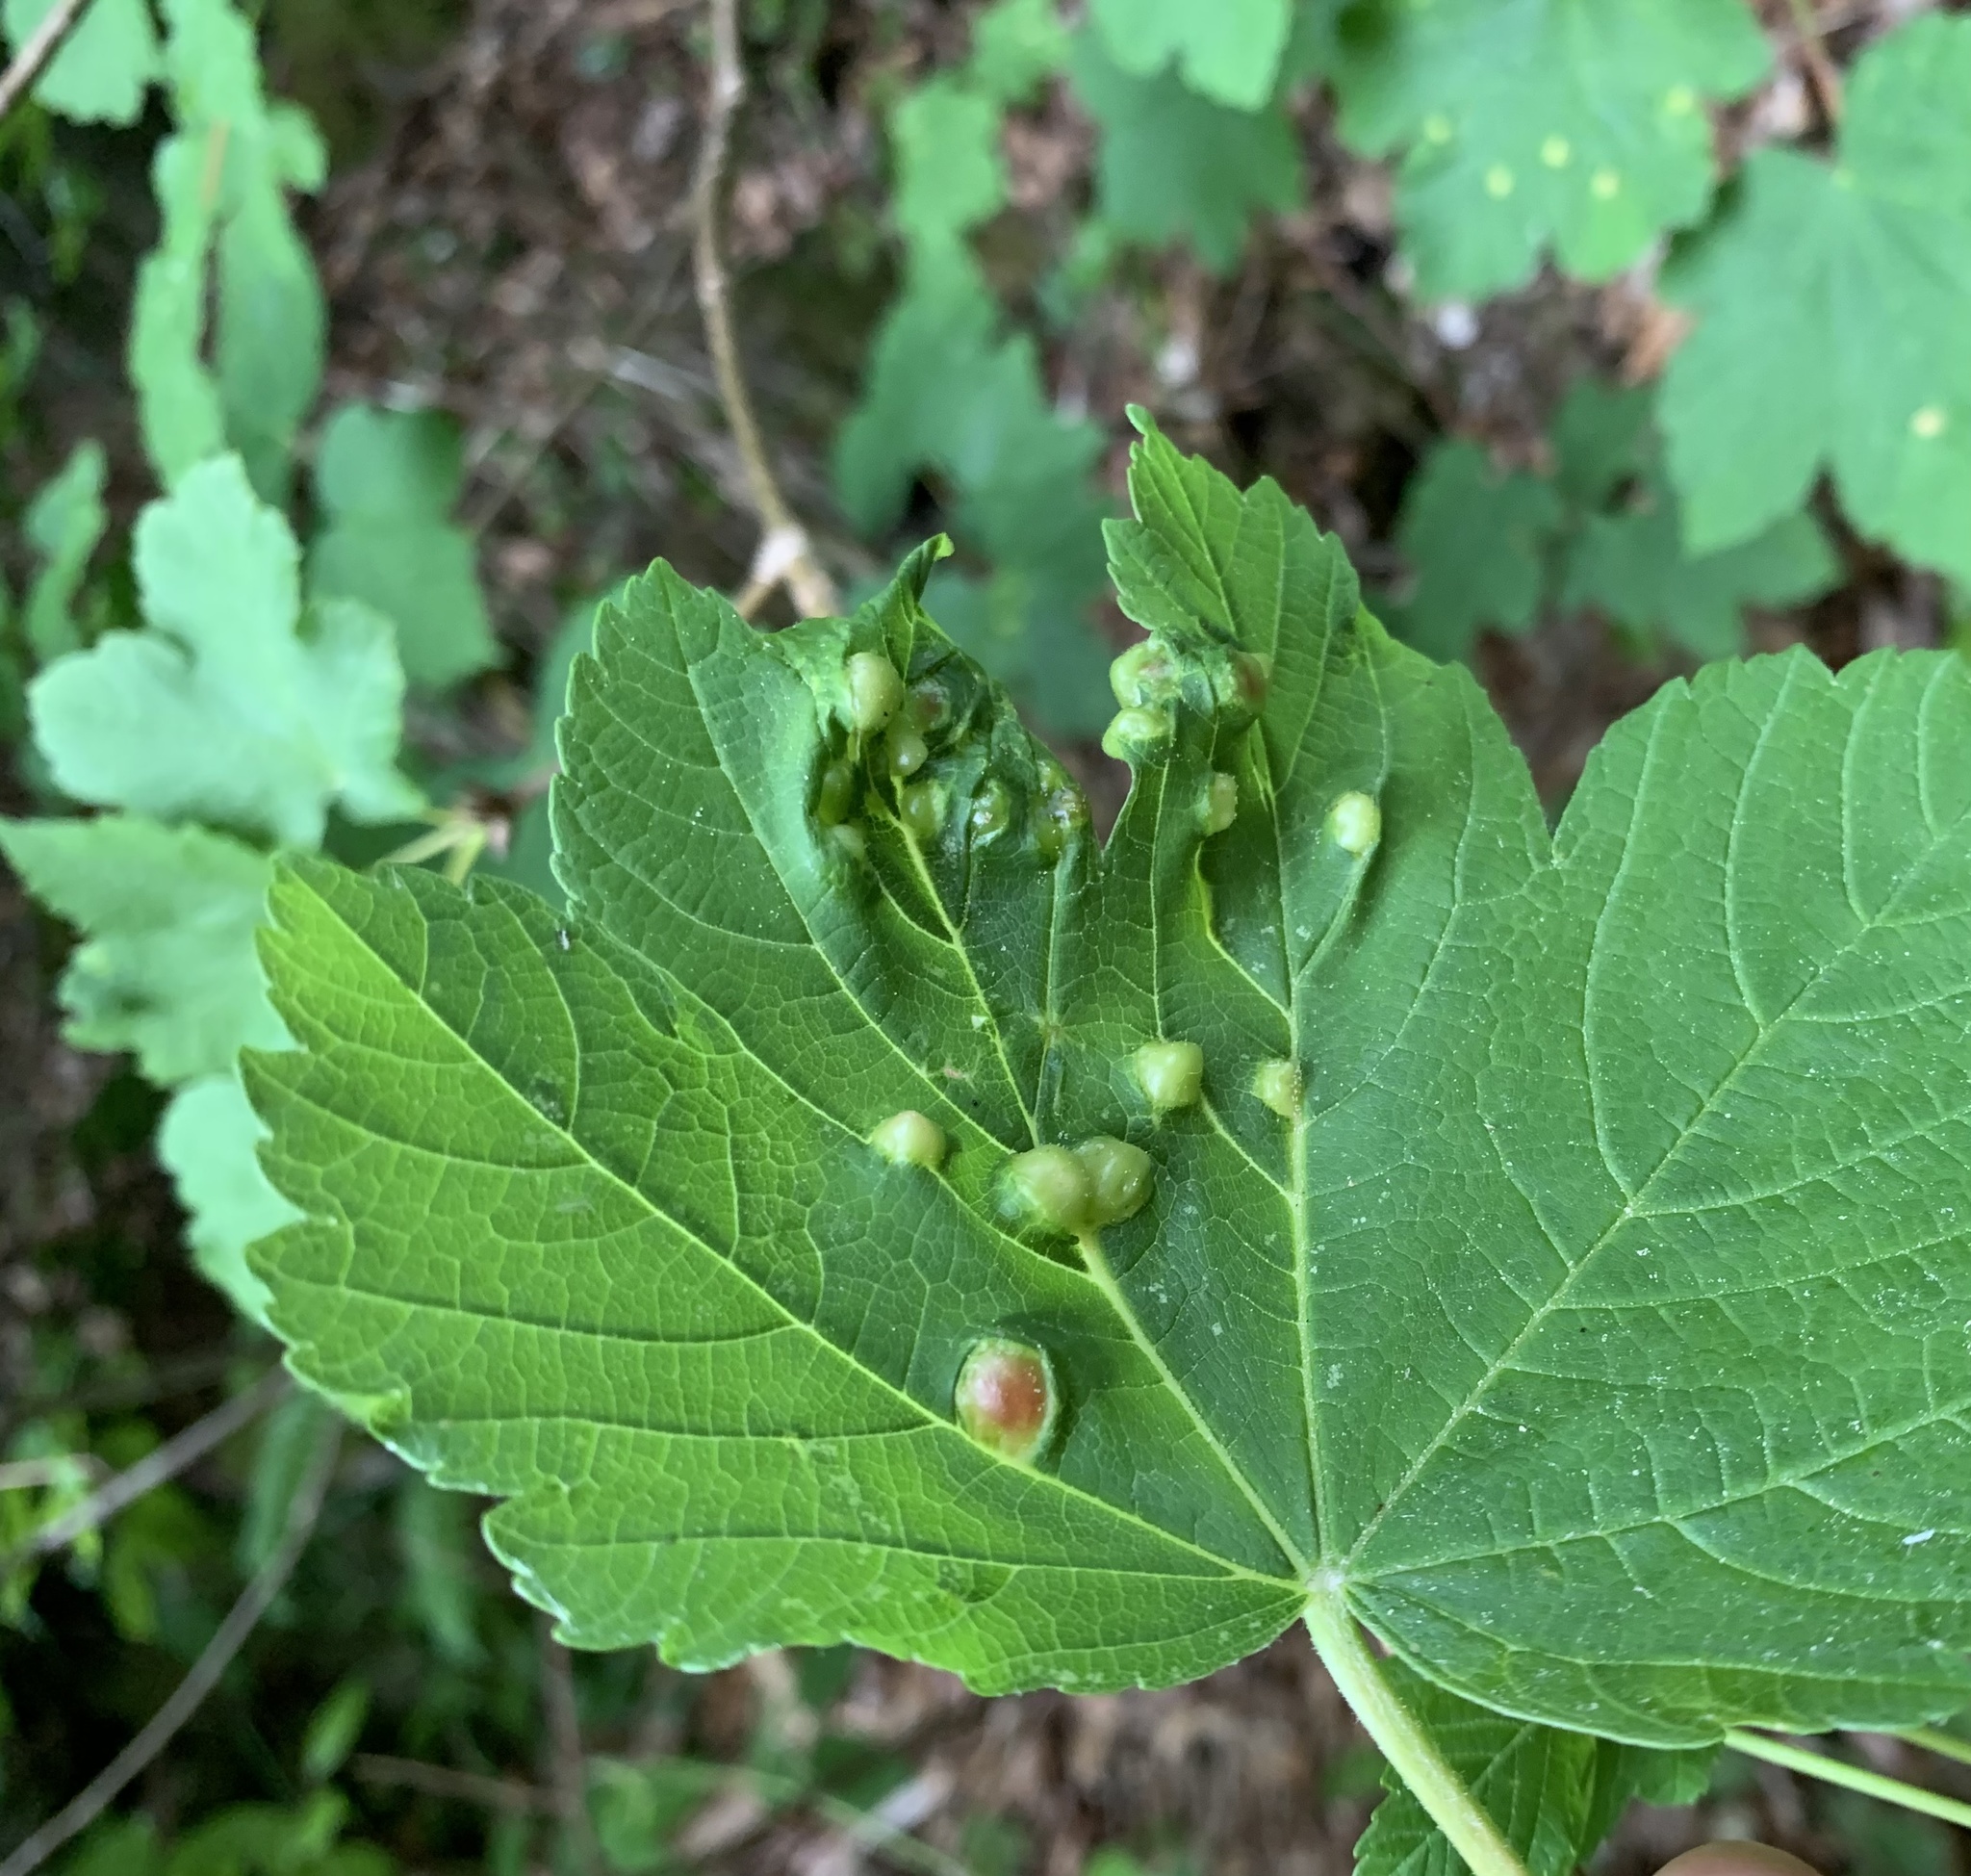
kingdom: Animalia
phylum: Arthropoda
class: Insecta
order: Hymenoptera
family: Cynipidae
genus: Pediaspis
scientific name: Pediaspis aceris
